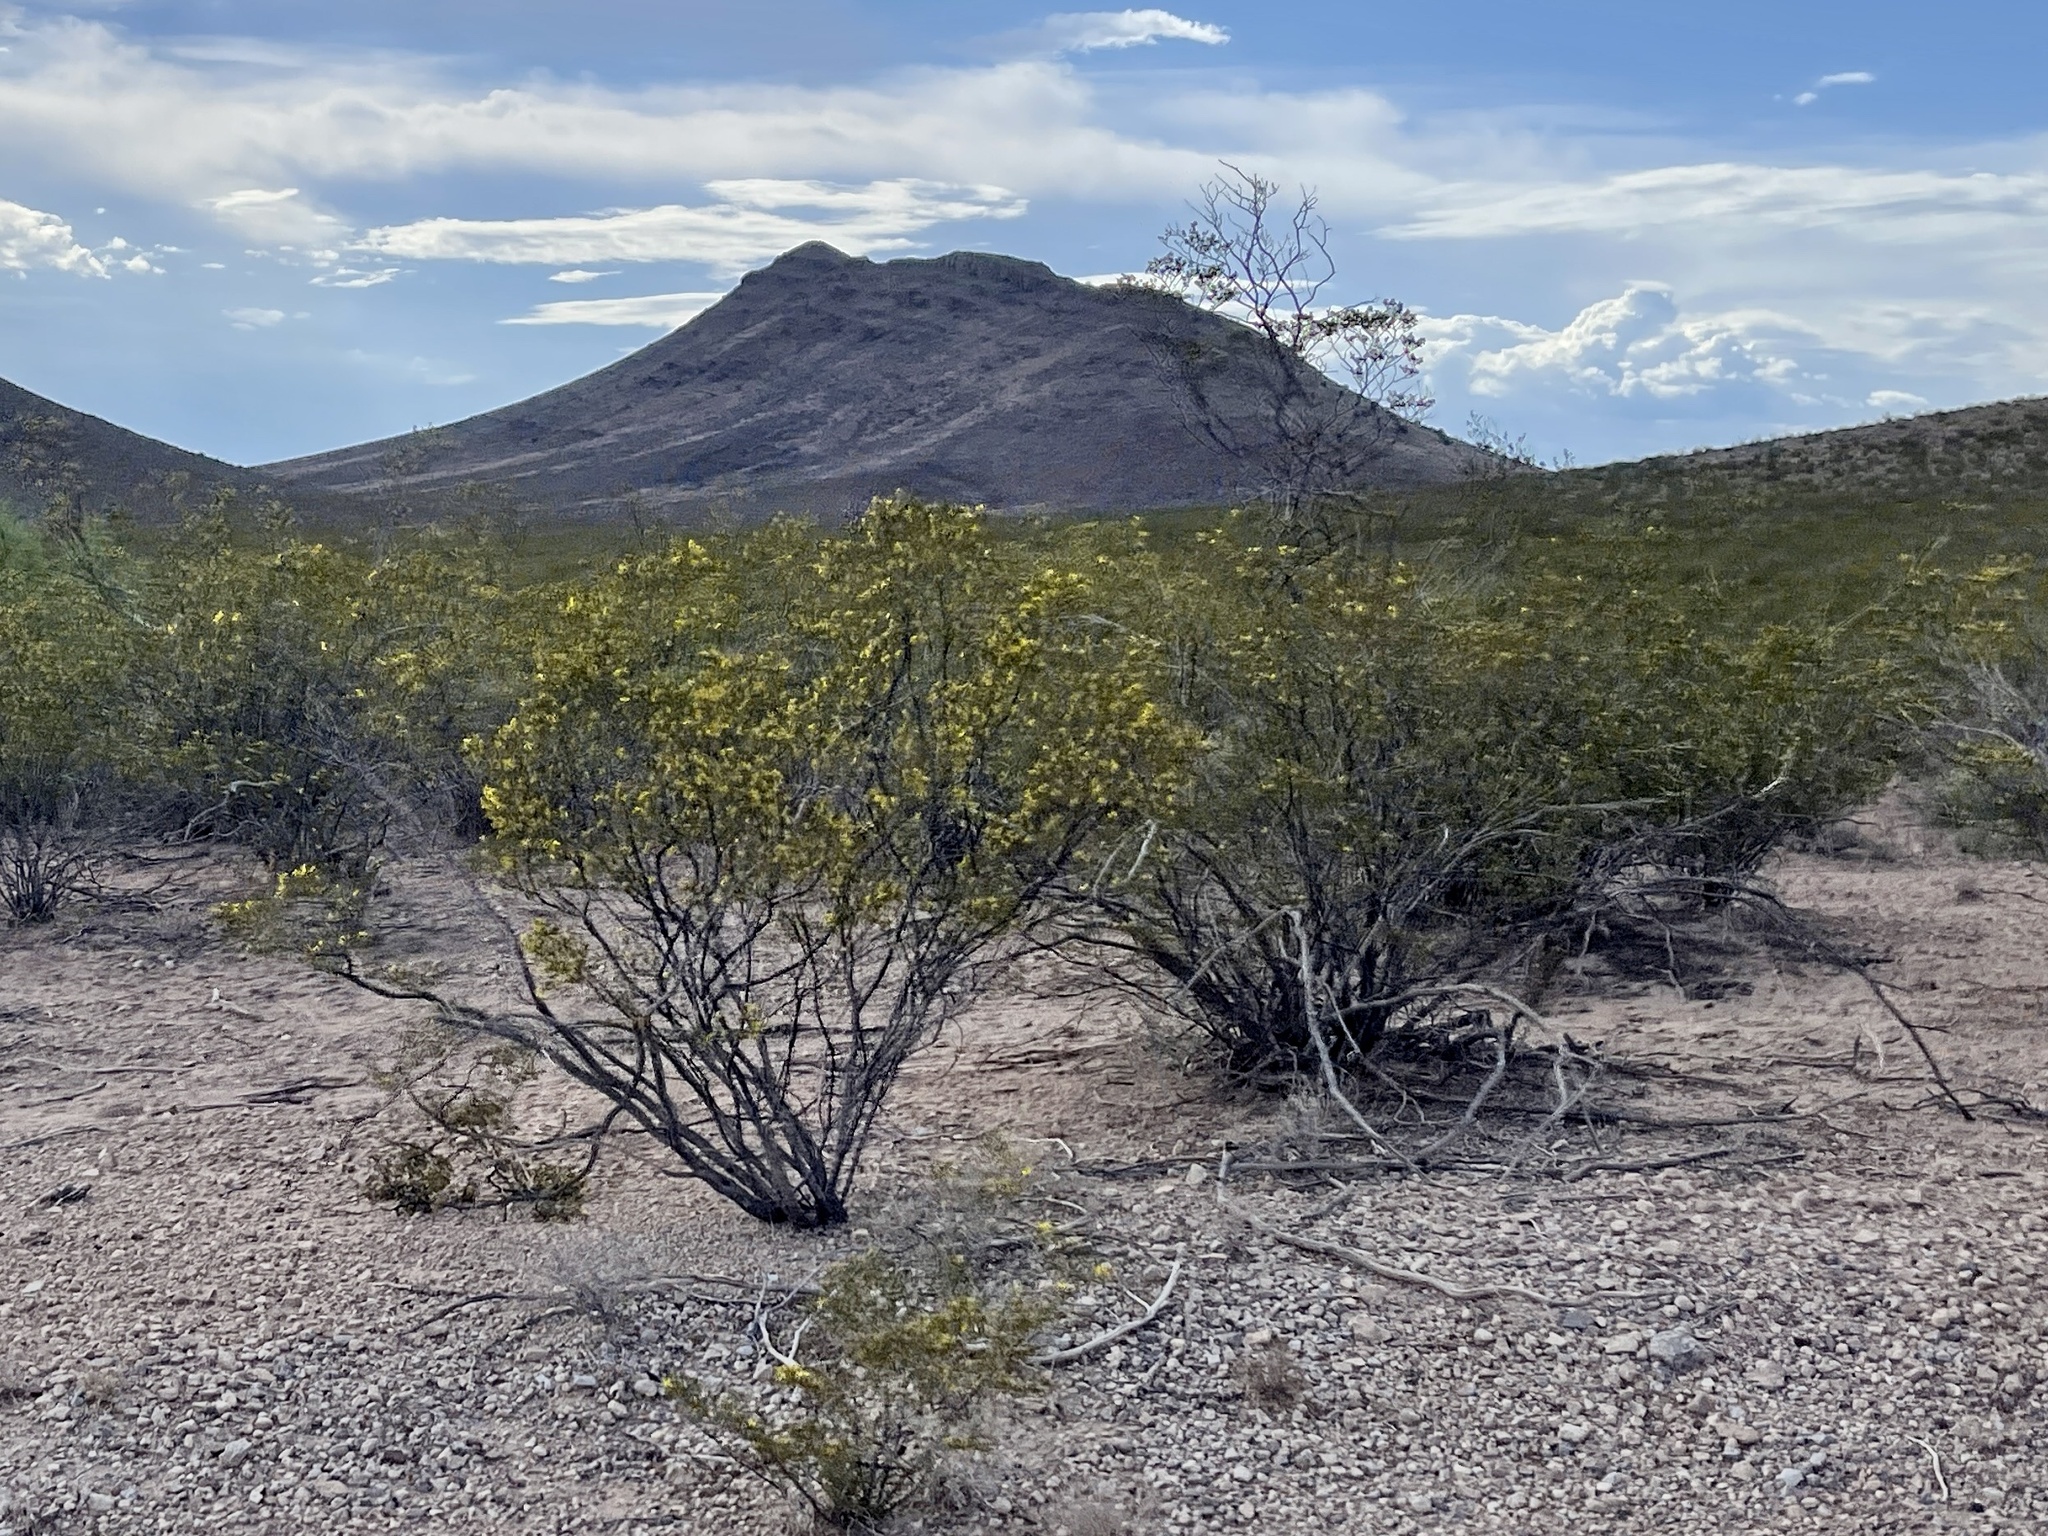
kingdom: Plantae
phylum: Tracheophyta
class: Magnoliopsida
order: Zygophyllales
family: Zygophyllaceae
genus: Larrea
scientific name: Larrea tridentata
